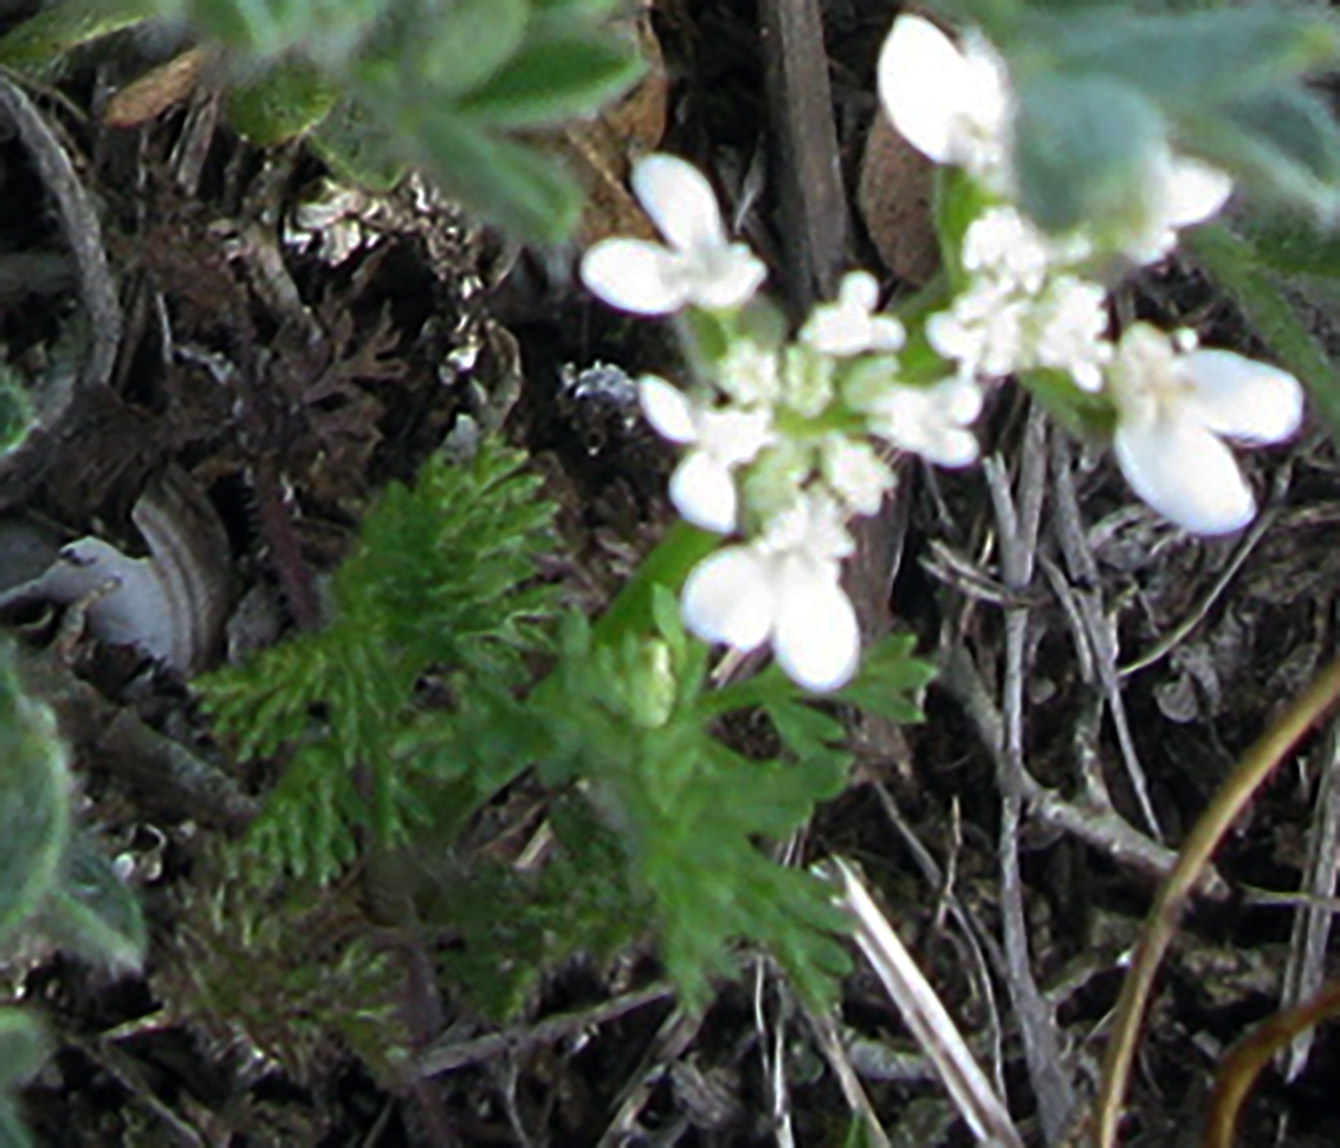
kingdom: Plantae
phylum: Tracheophyta
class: Magnoliopsida
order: Apiales
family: Apiaceae
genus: Orlaya
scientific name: Orlaya daucoides
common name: Flat-fruit orlaya
